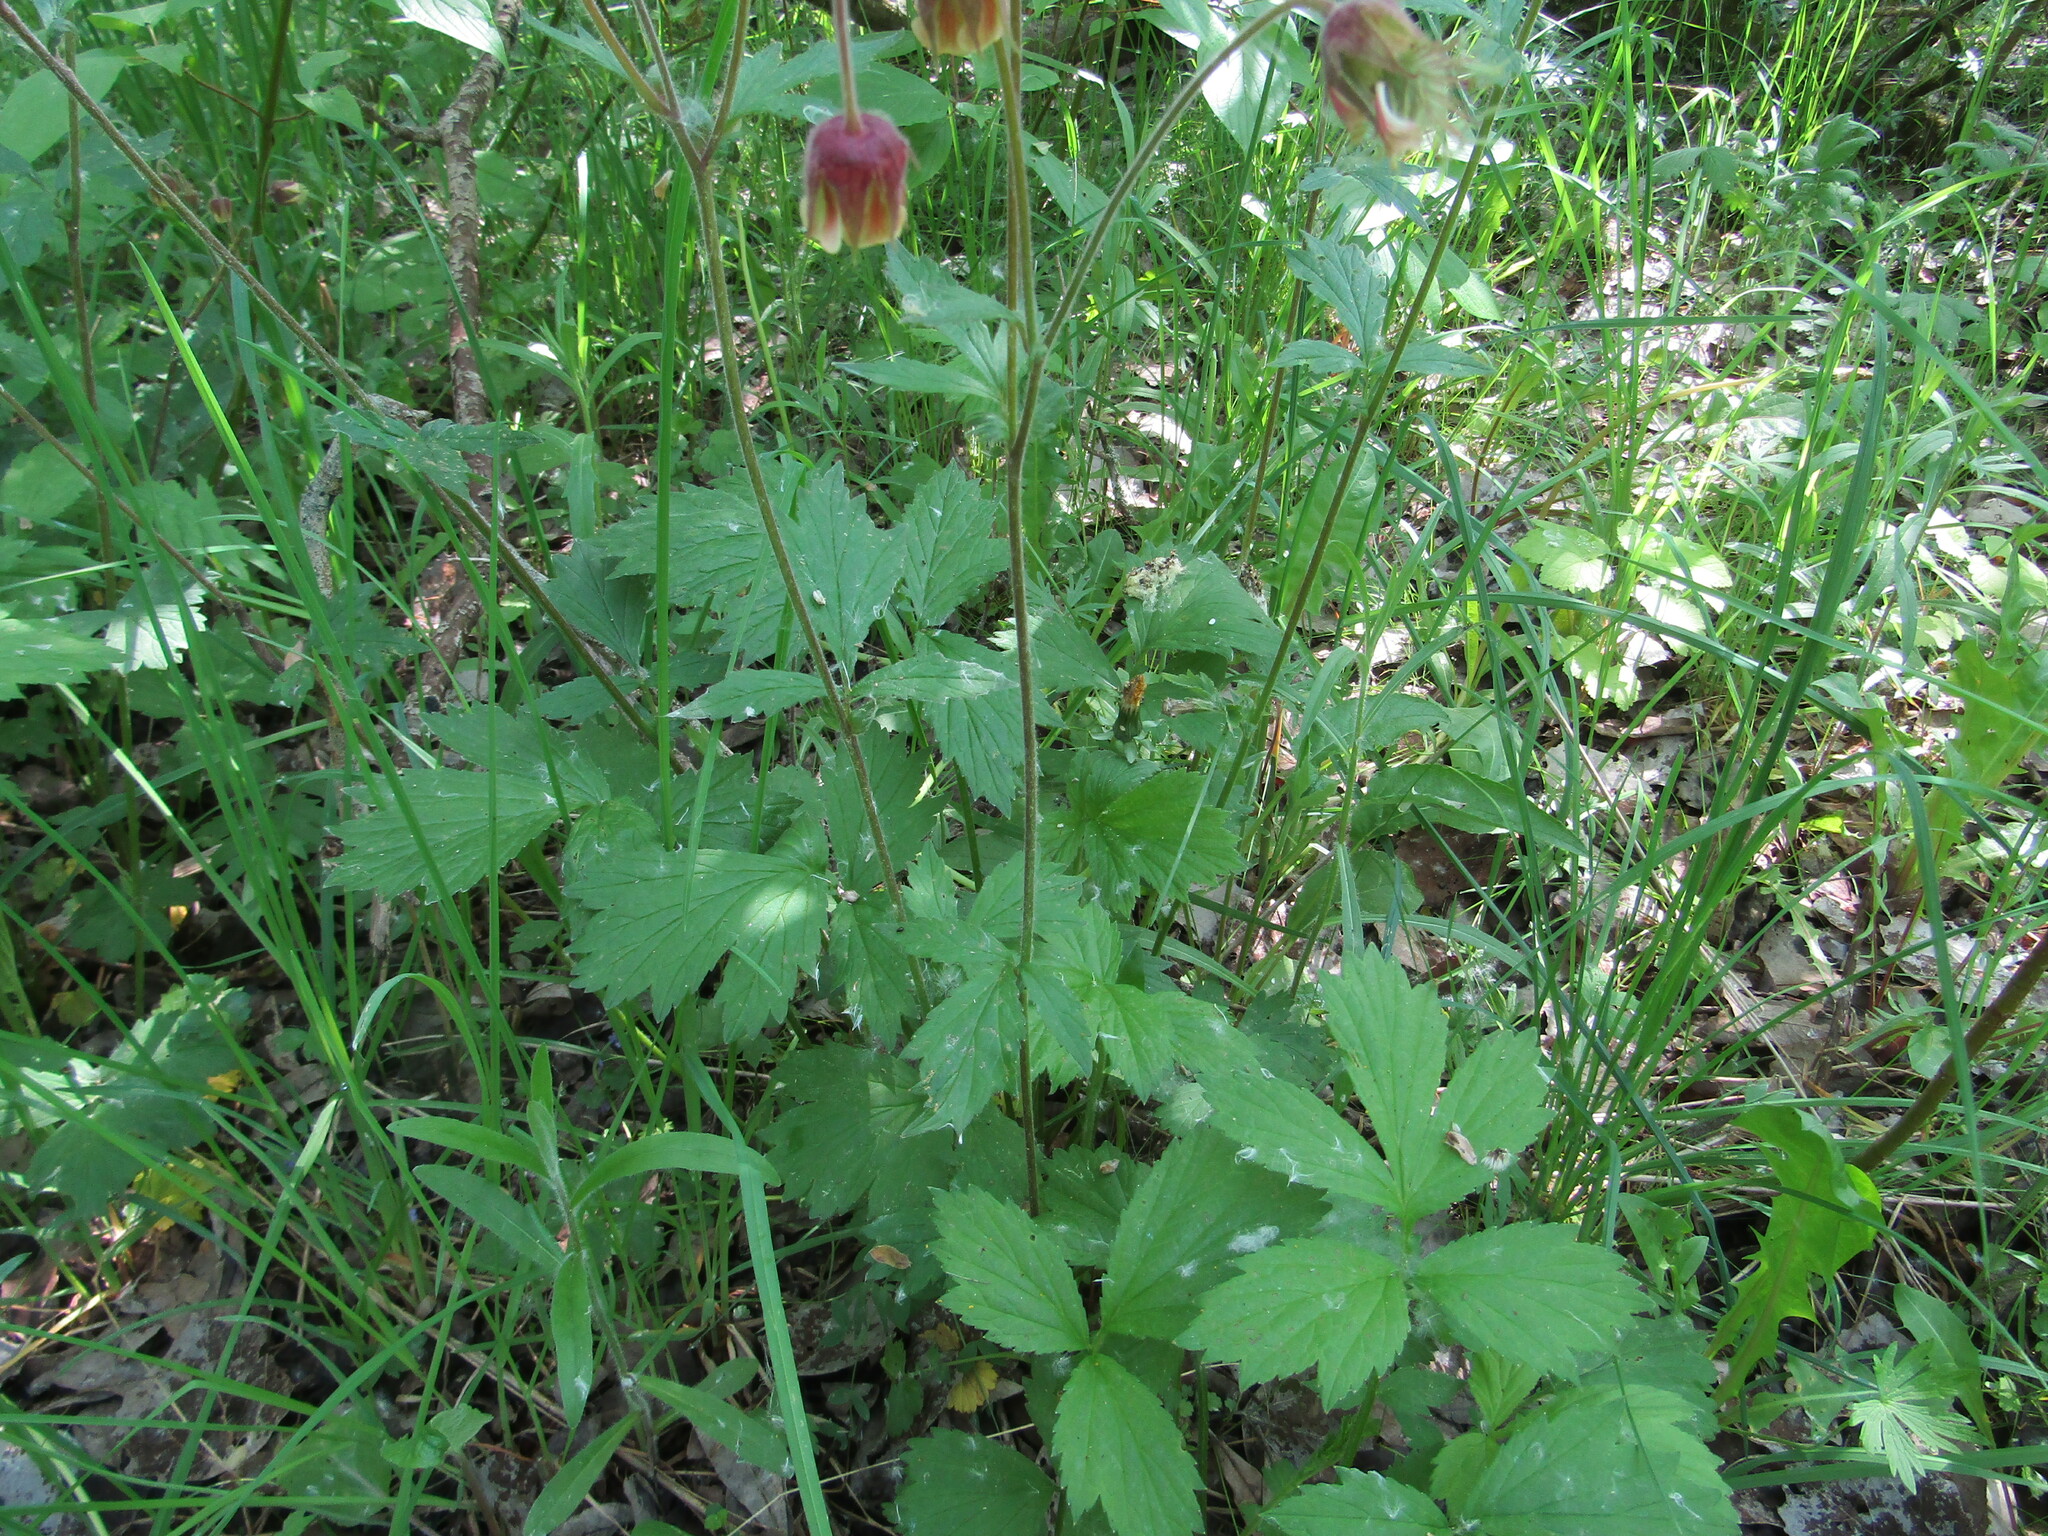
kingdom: Plantae
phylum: Tracheophyta
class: Magnoliopsida
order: Rosales
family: Rosaceae
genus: Geum
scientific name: Geum rivale
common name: Water avens
